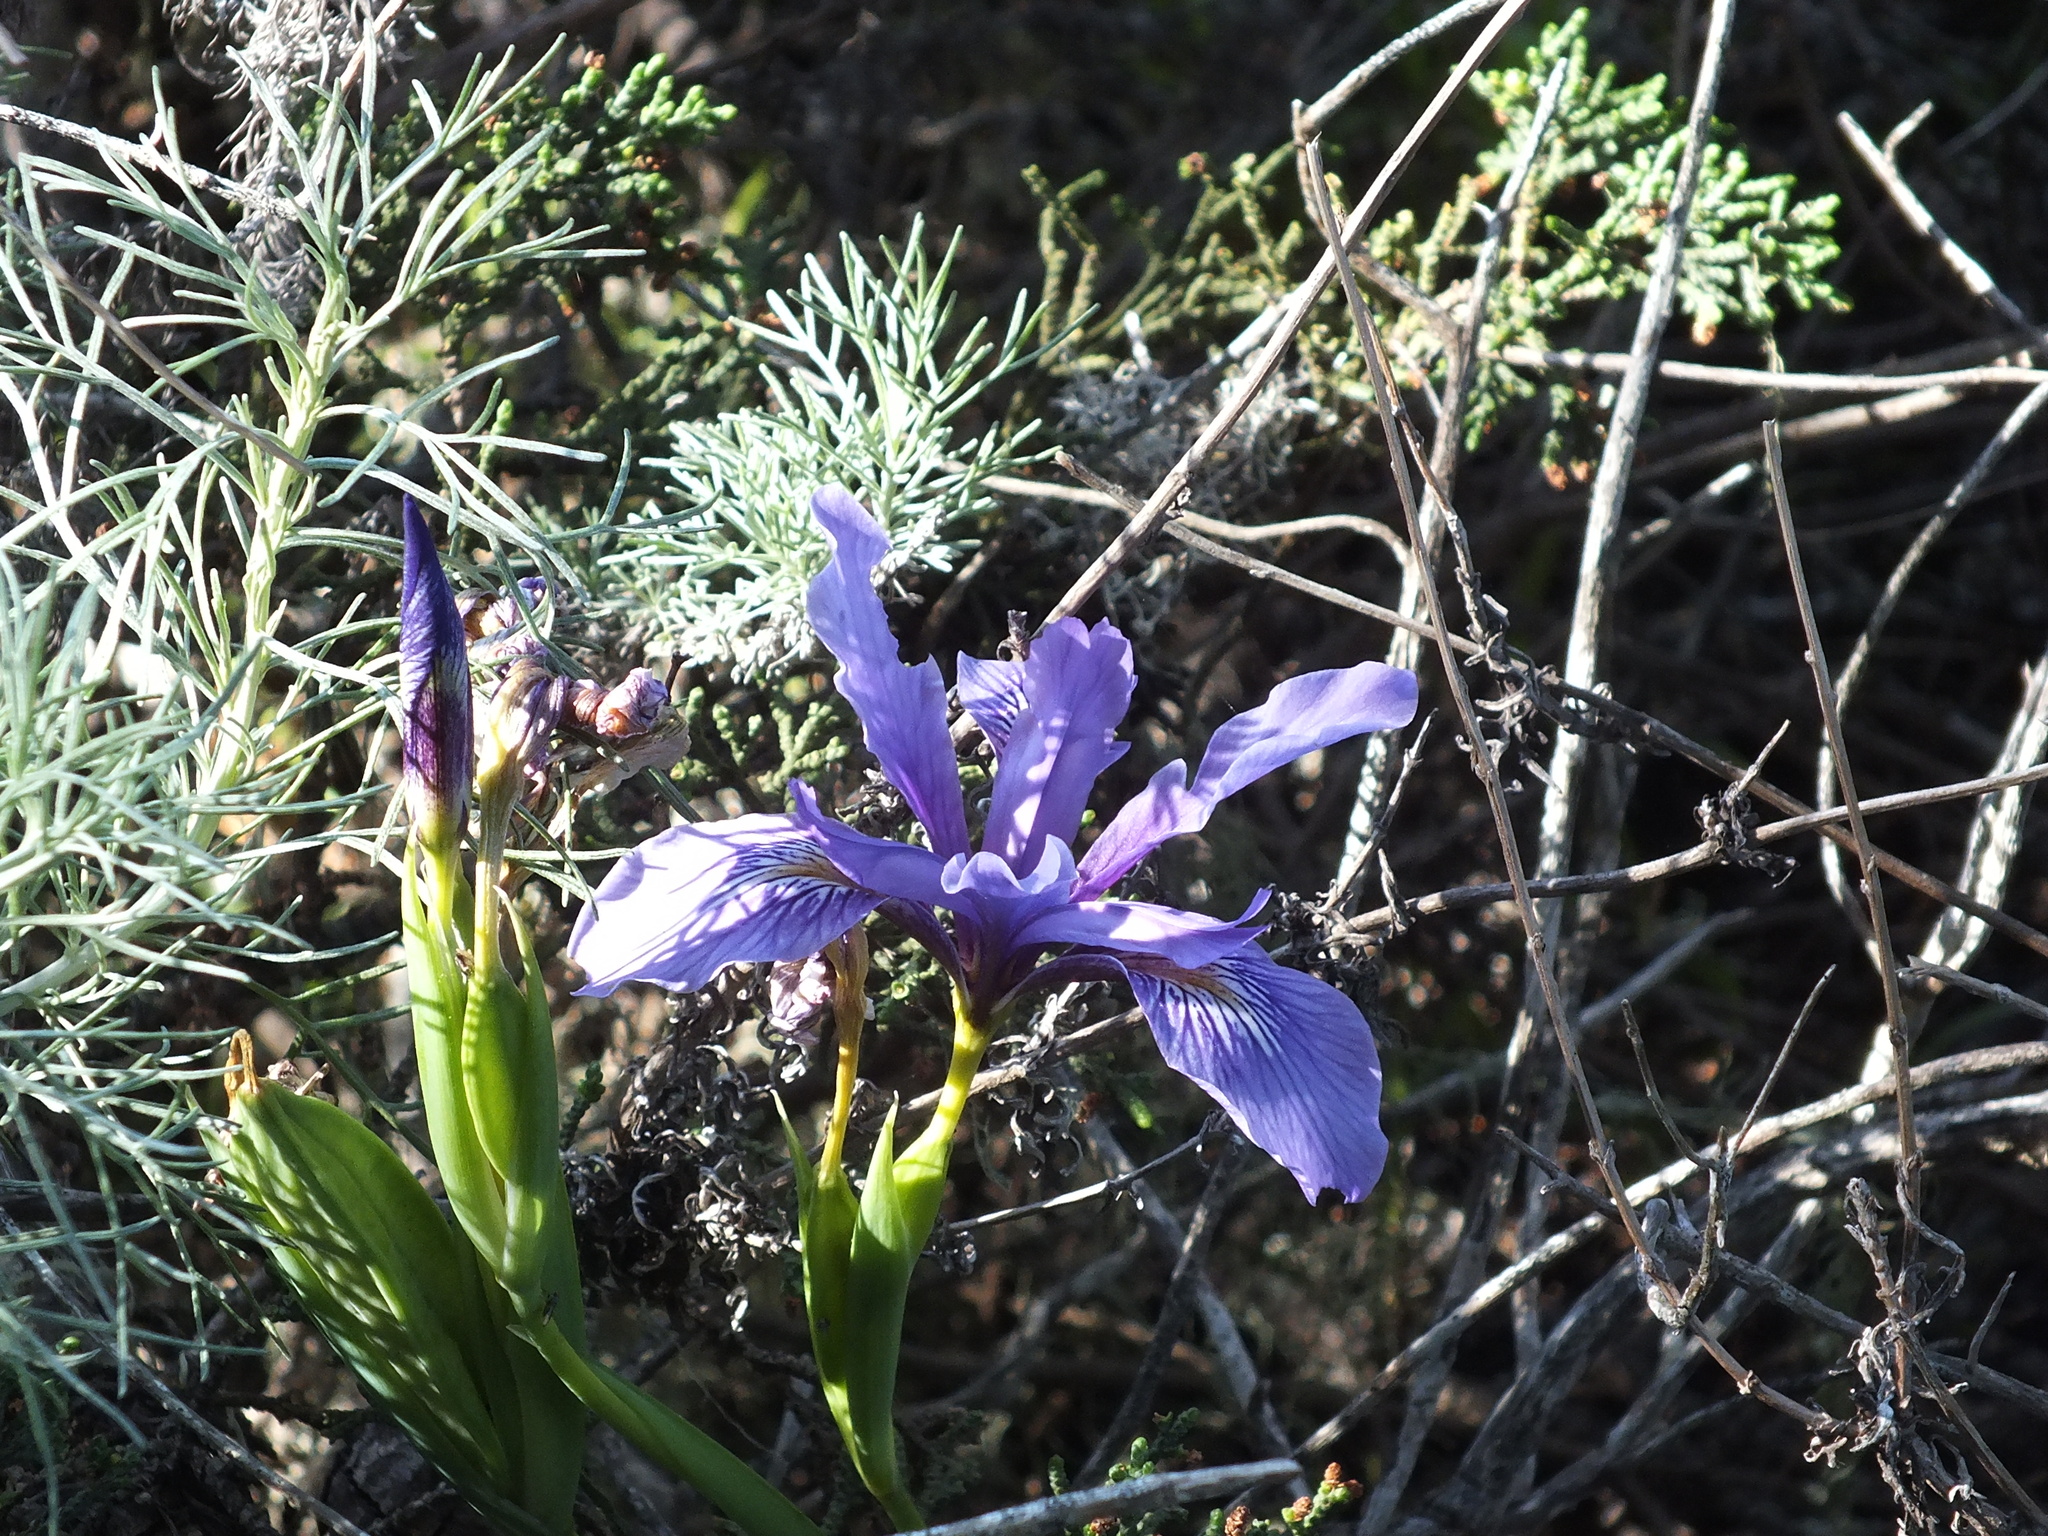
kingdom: Plantae
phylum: Tracheophyta
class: Liliopsida
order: Asparagales
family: Iridaceae
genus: Iris
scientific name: Iris douglasiana
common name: Marin iris
